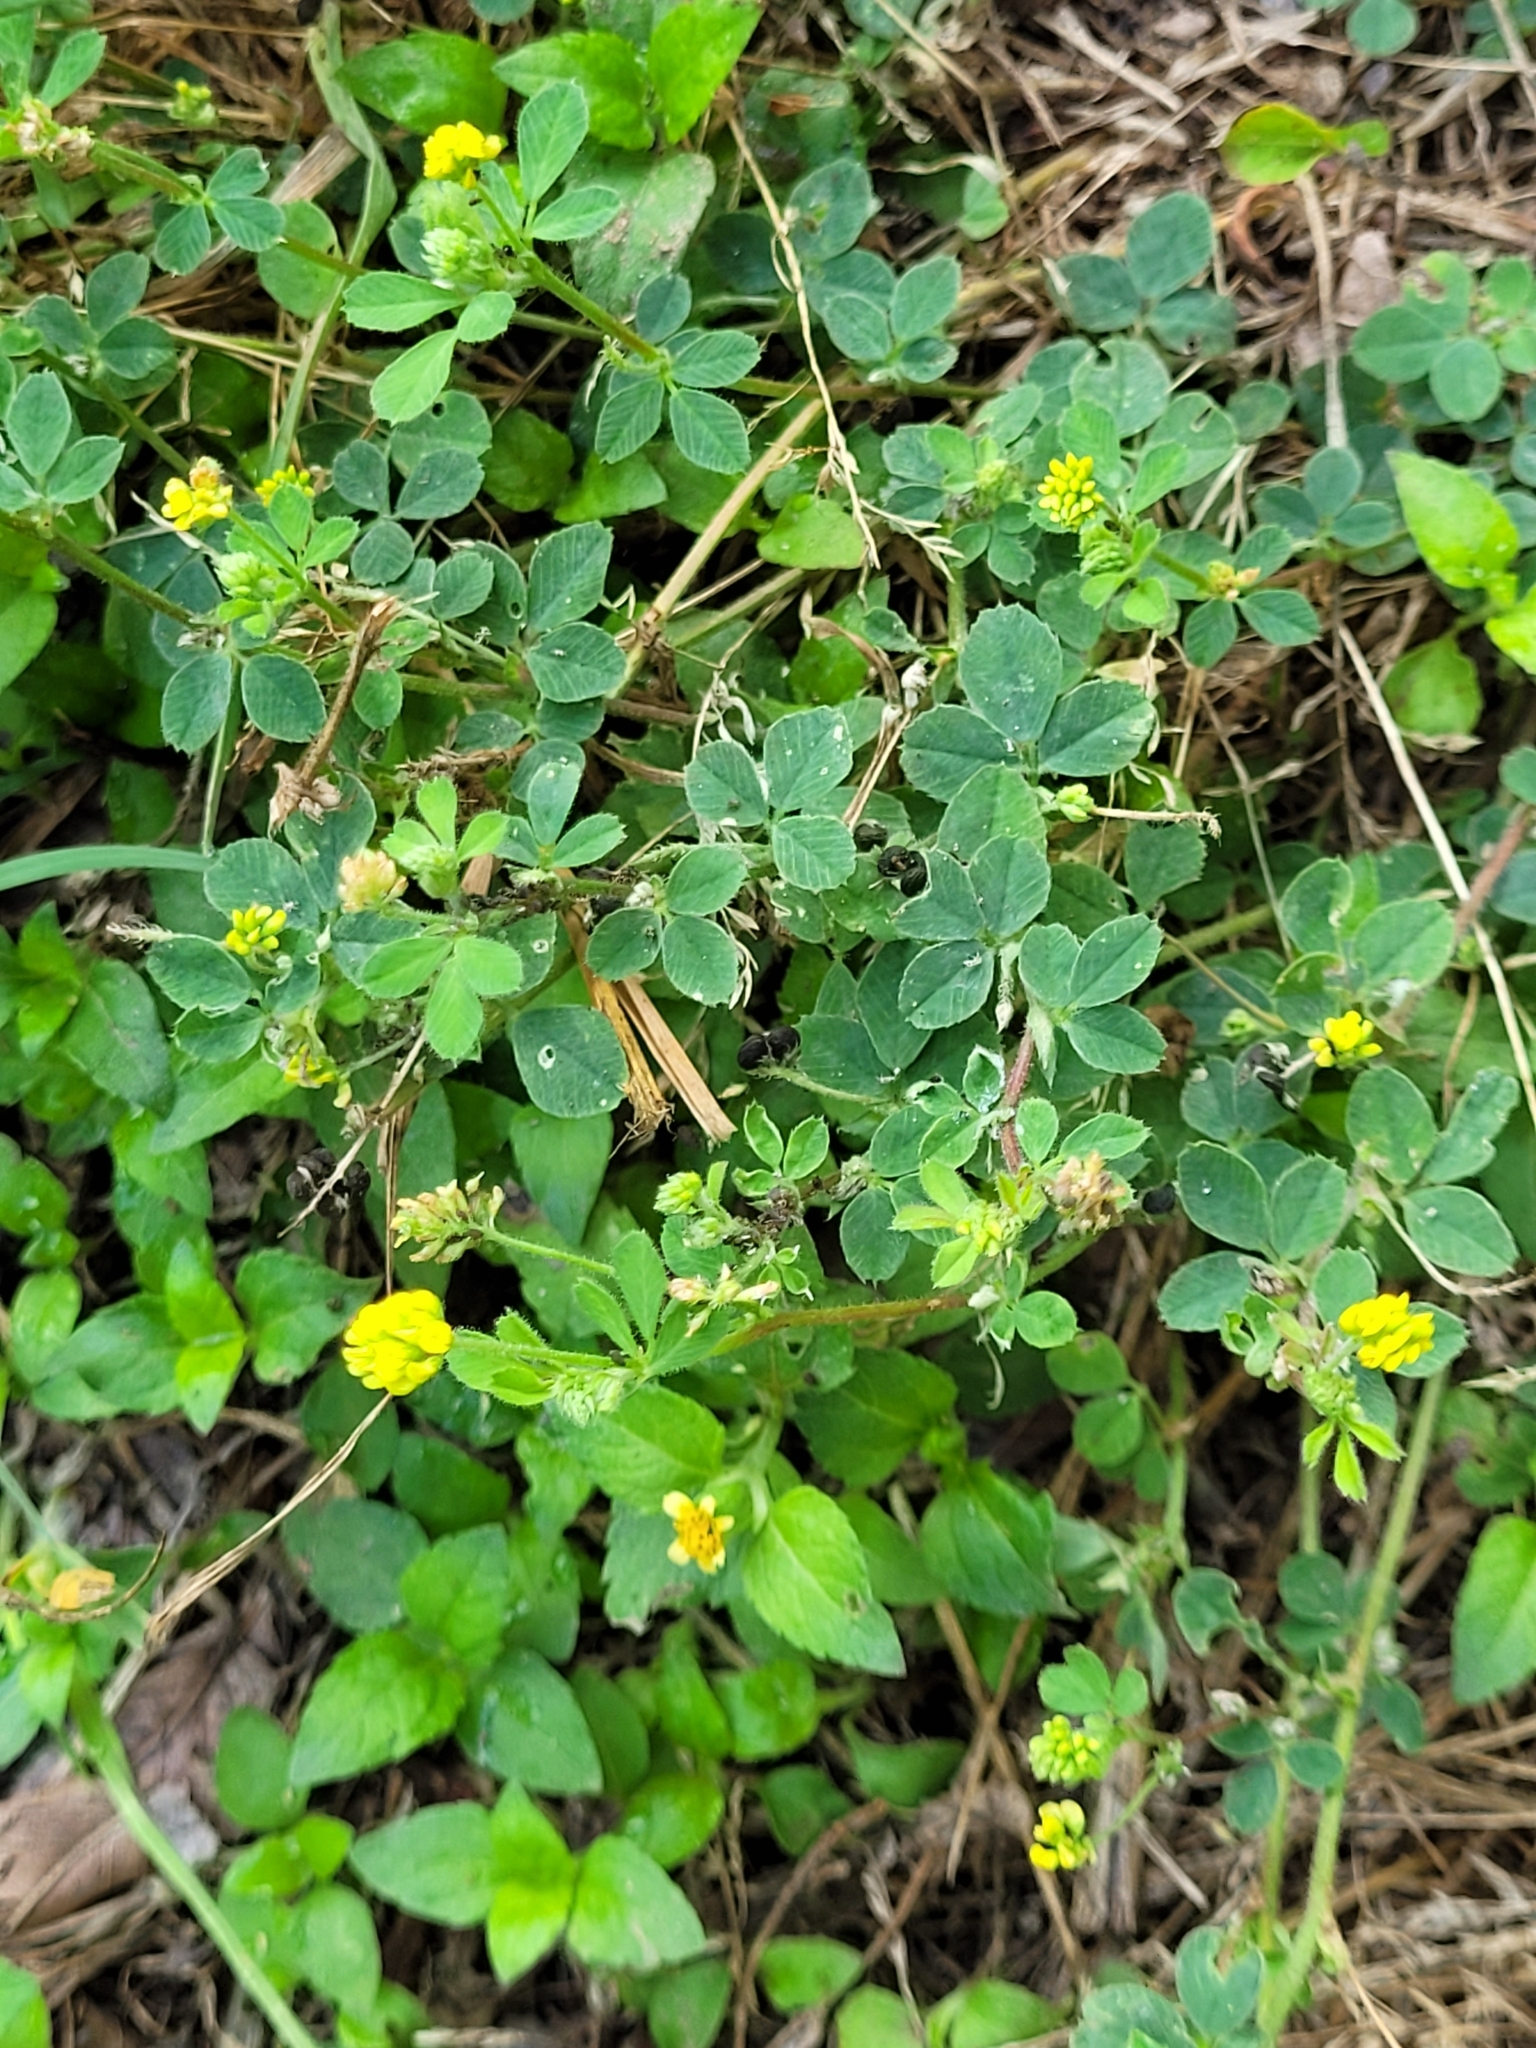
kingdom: Plantae
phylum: Tracheophyta
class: Magnoliopsida
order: Fabales
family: Fabaceae
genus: Medicago
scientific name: Medicago lupulina
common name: Black medick
